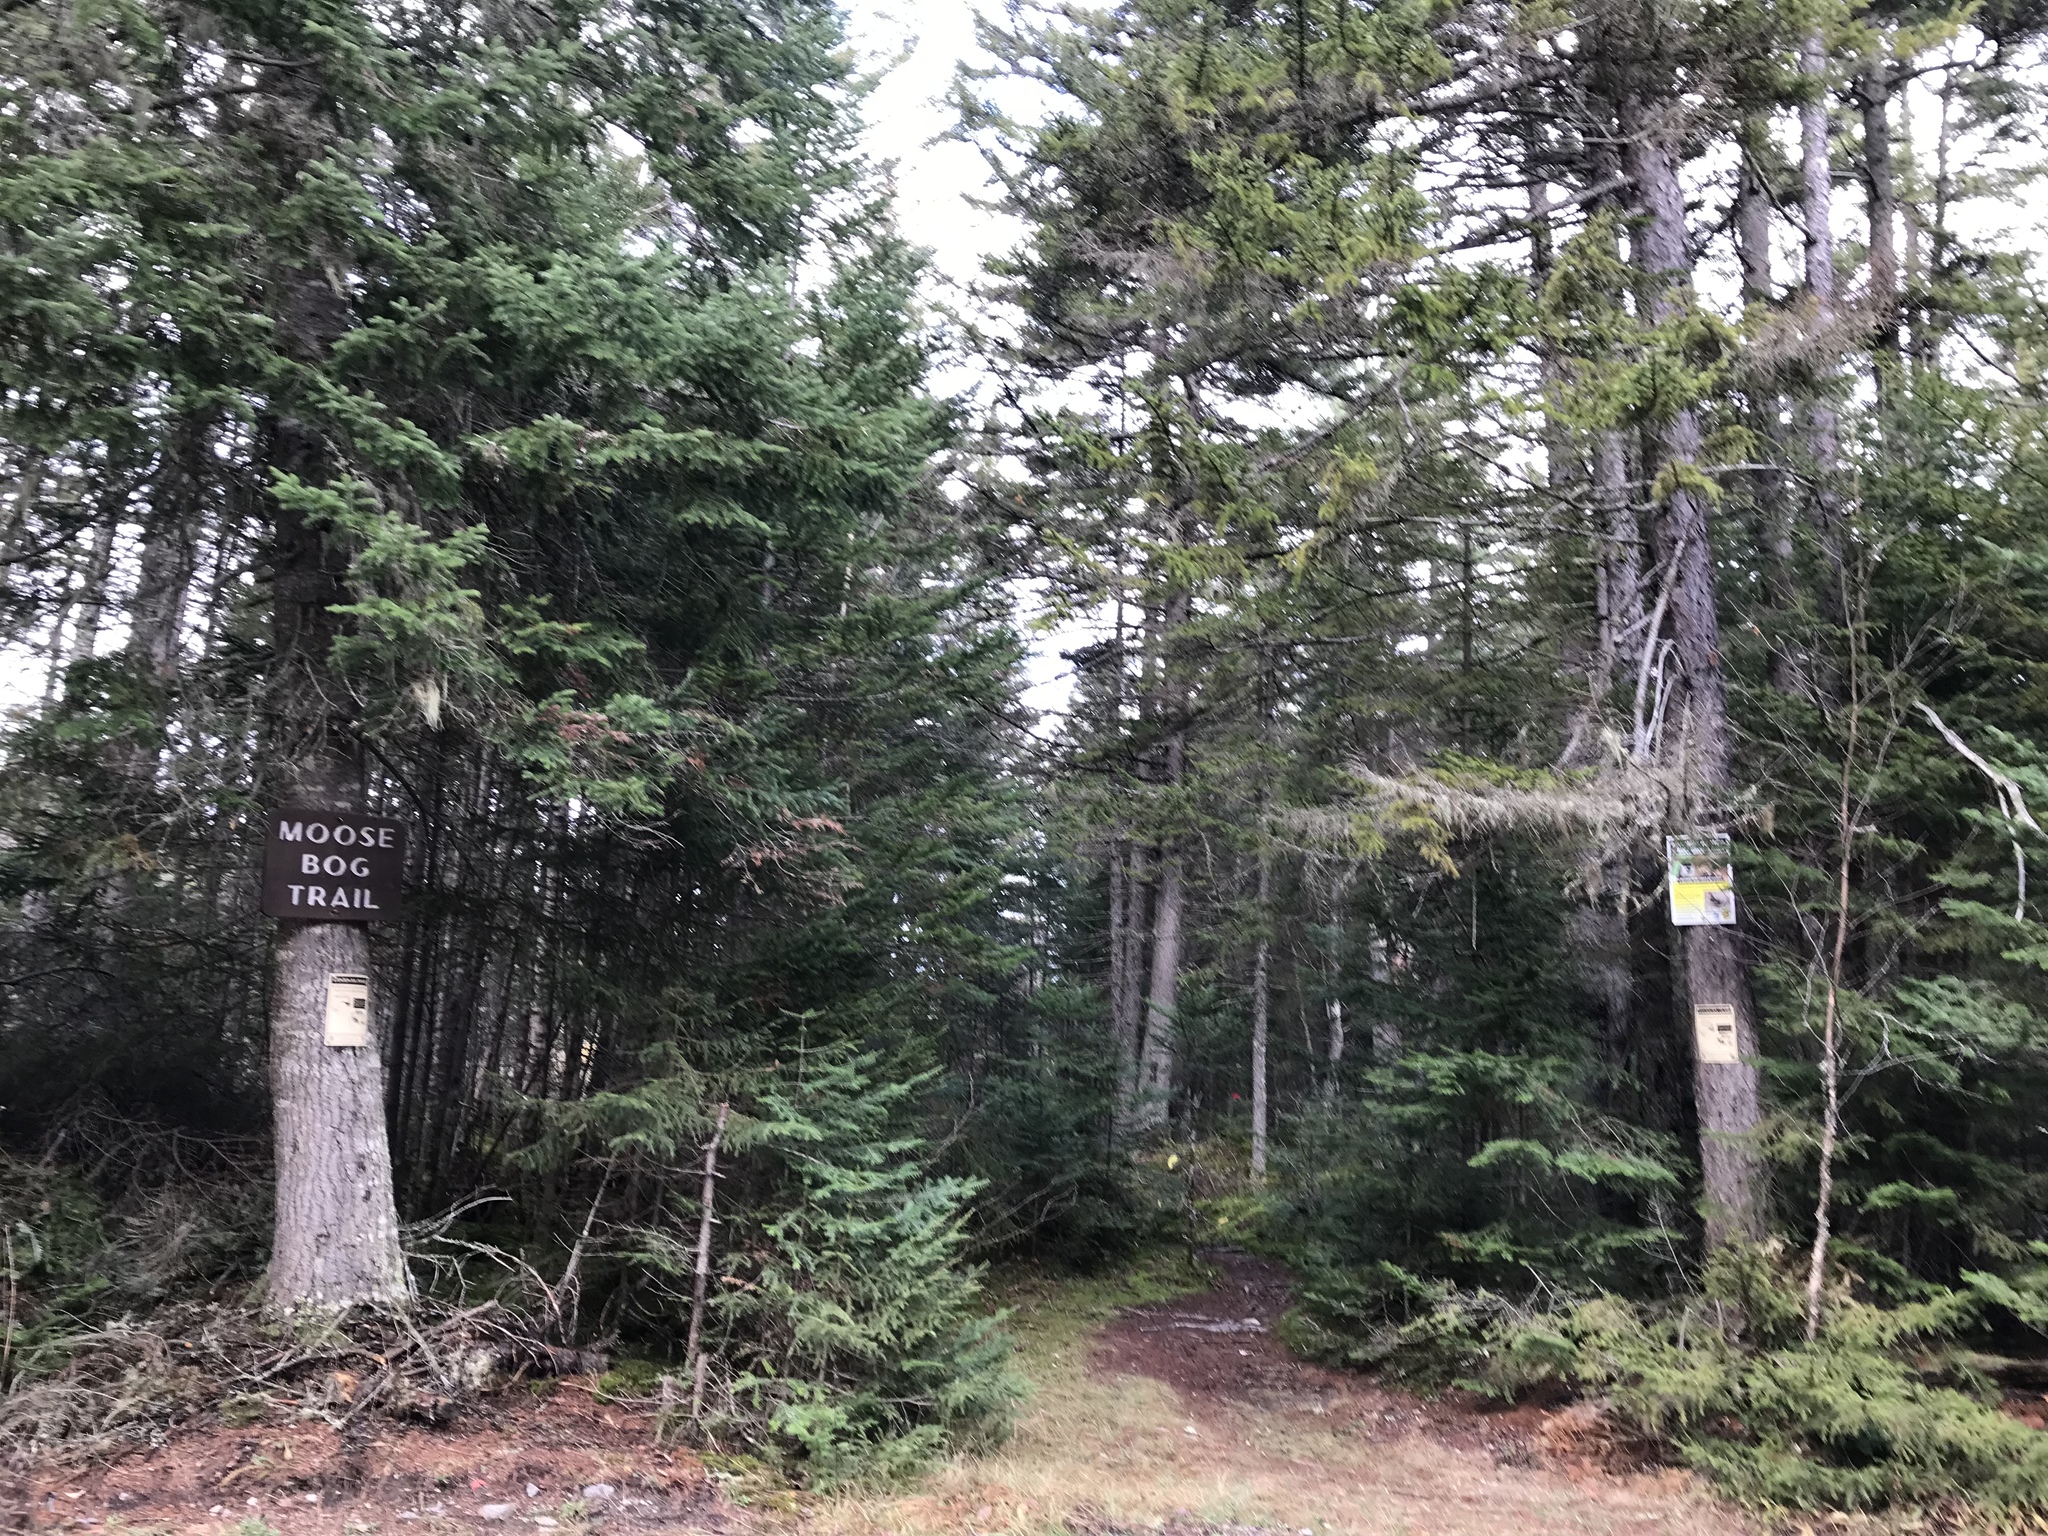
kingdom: Plantae
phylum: Tracheophyta
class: Pinopsida
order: Pinales
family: Pinaceae
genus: Picea
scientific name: Picea rubens
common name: Red spruce
